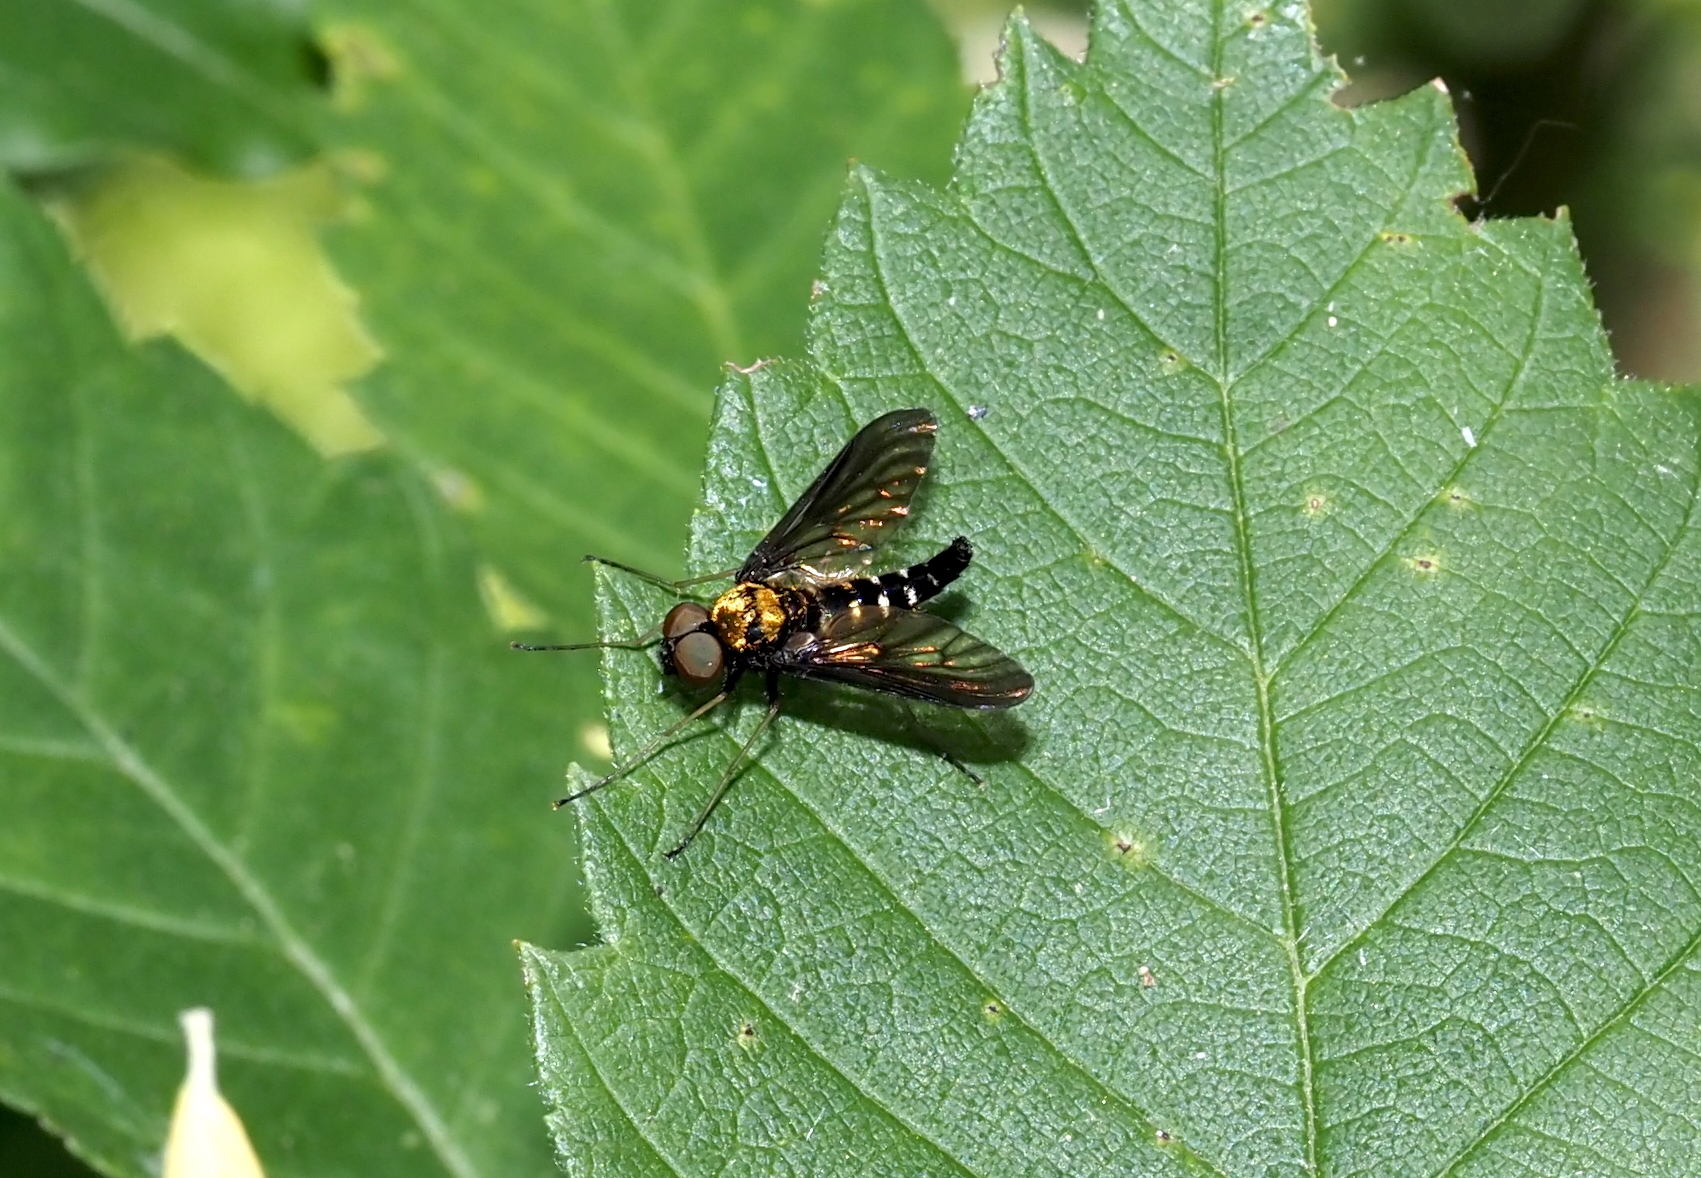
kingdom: Animalia
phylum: Arthropoda
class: Insecta
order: Diptera
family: Rhagionidae
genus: Chrysopilus
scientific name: Chrysopilus thoracicus
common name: Golden-backed snipe fly
